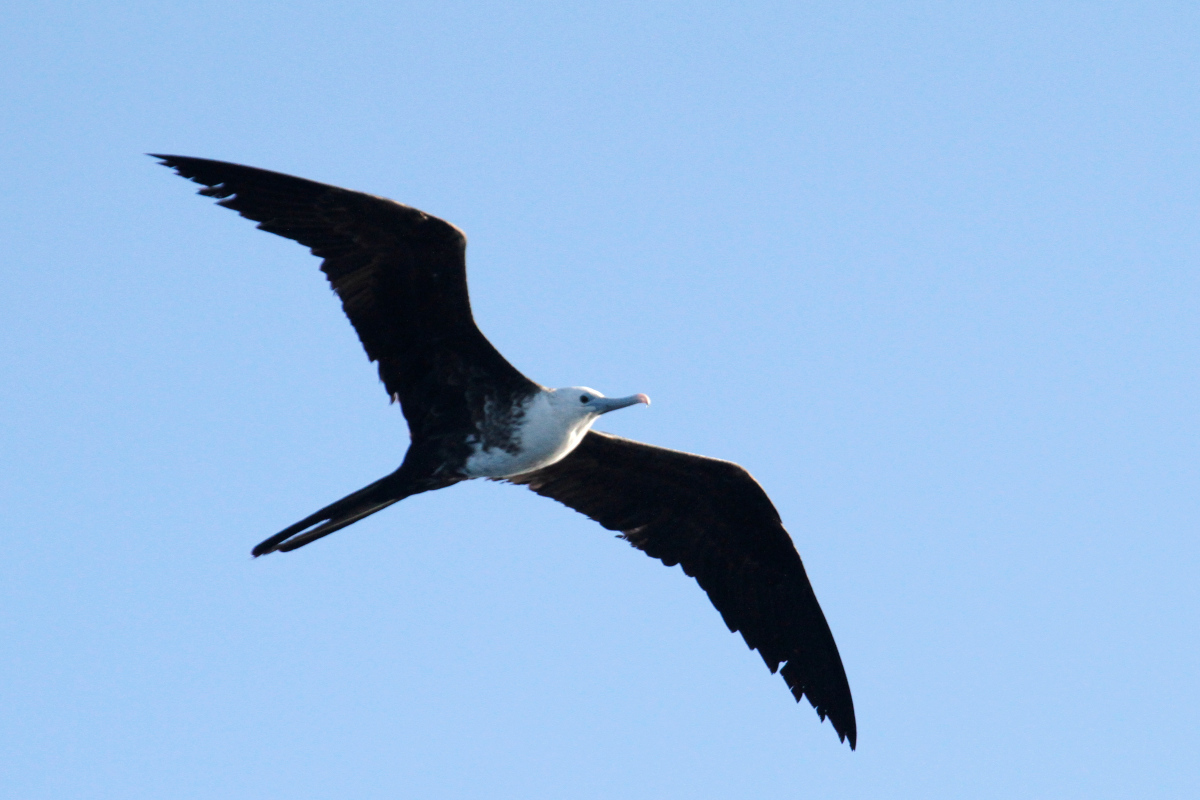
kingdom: Animalia
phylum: Chordata
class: Aves
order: Suliformes
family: Fregatidae
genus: Fregata
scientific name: Fregata magnificens
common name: Magnificent frigatebird
